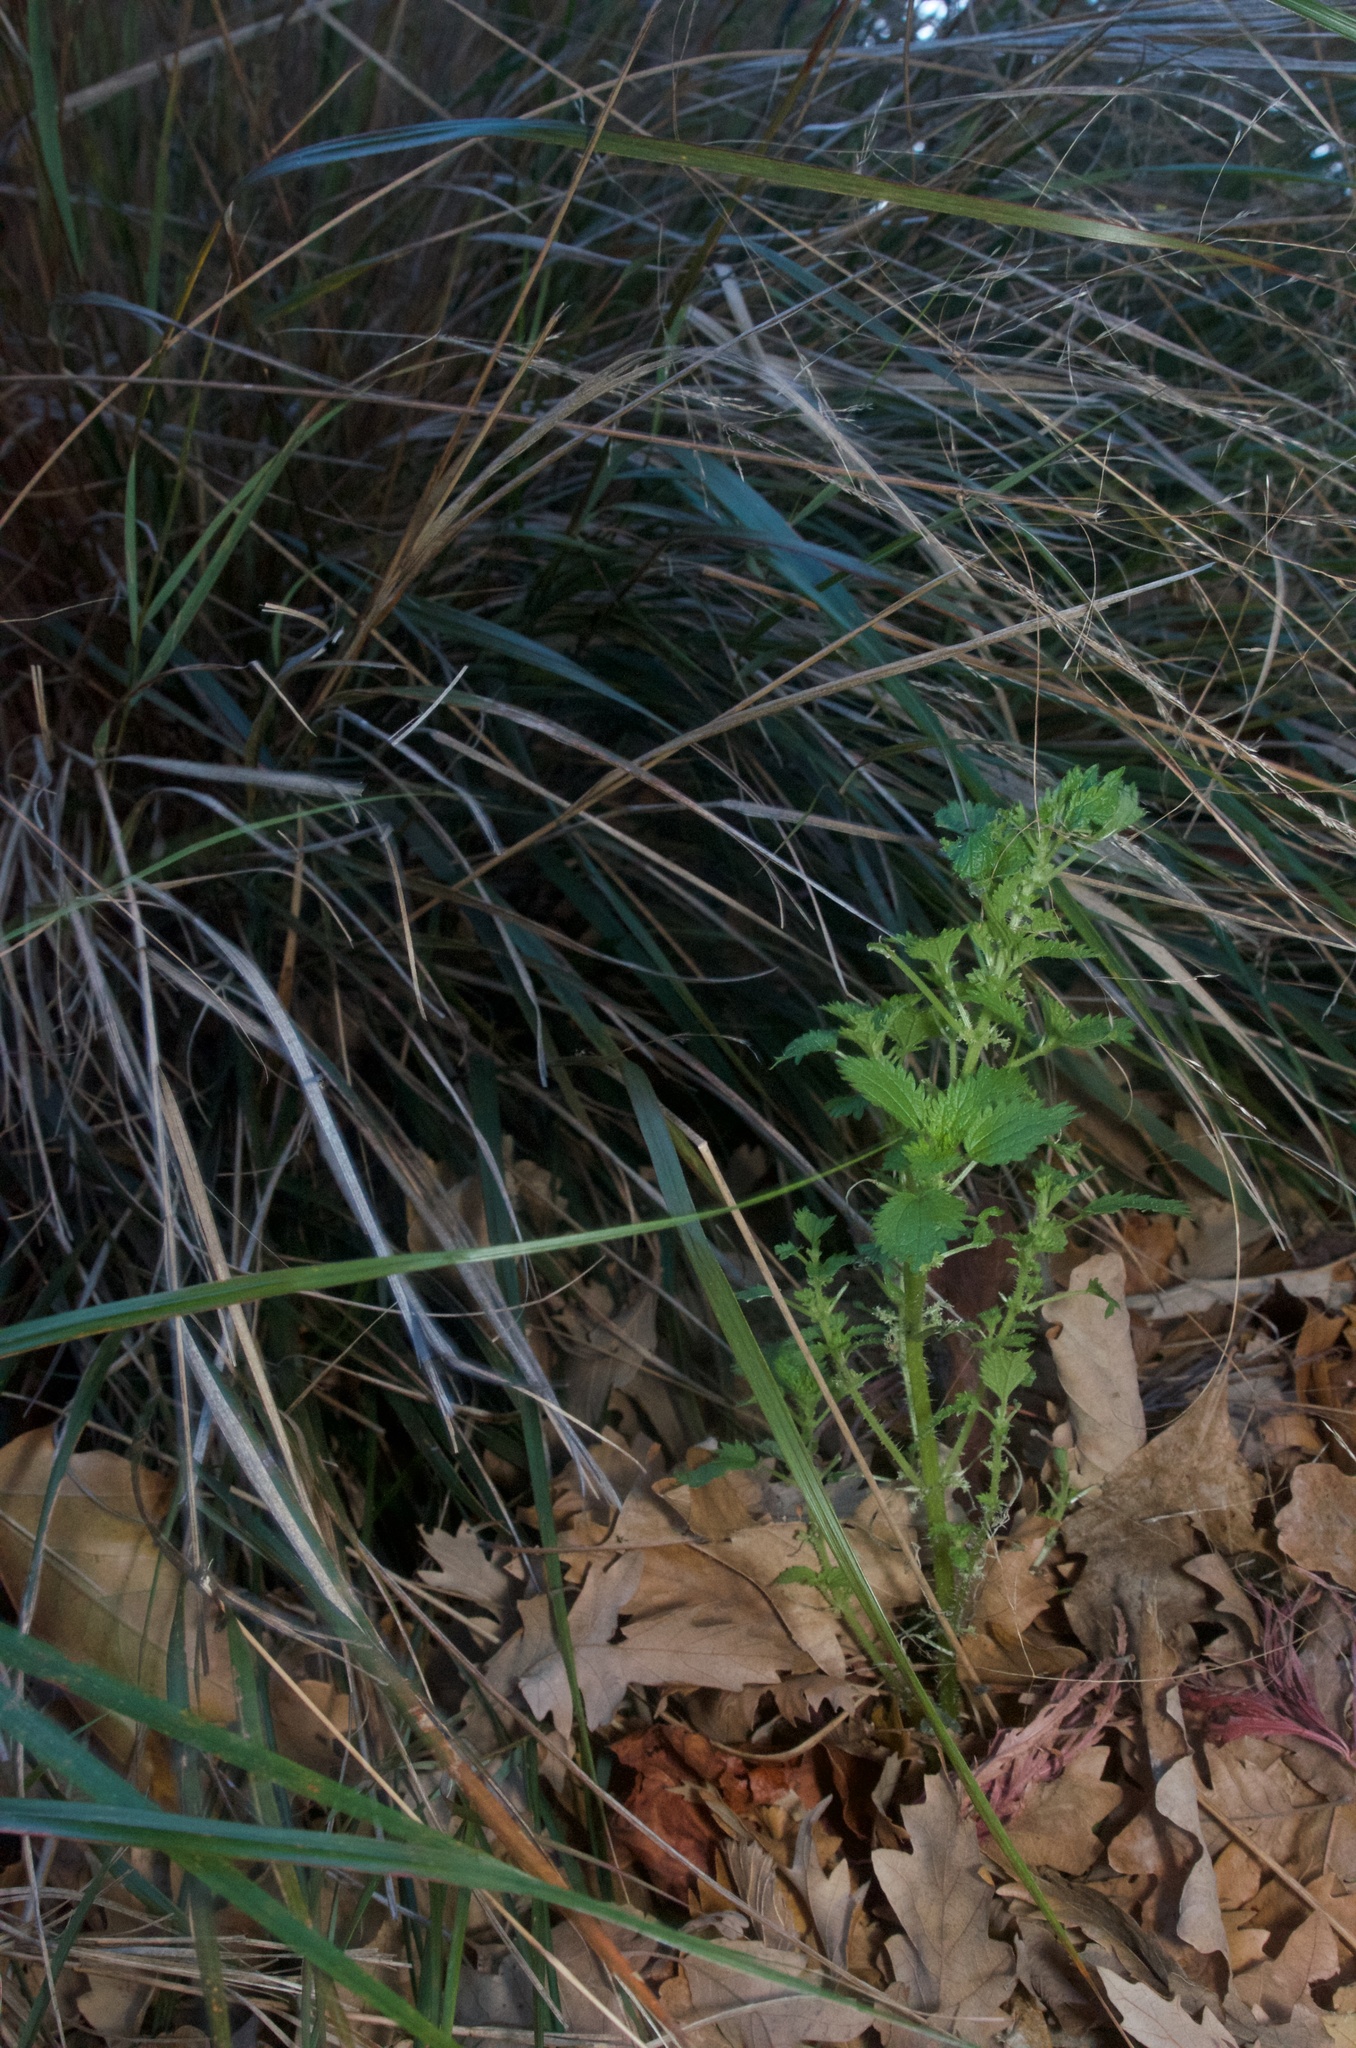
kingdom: Plantae
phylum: Tracheophyta
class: Magnoliopsida
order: Rosales
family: Urticaceae
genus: Urtica
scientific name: Urtica urens
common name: Dwarf nettle
